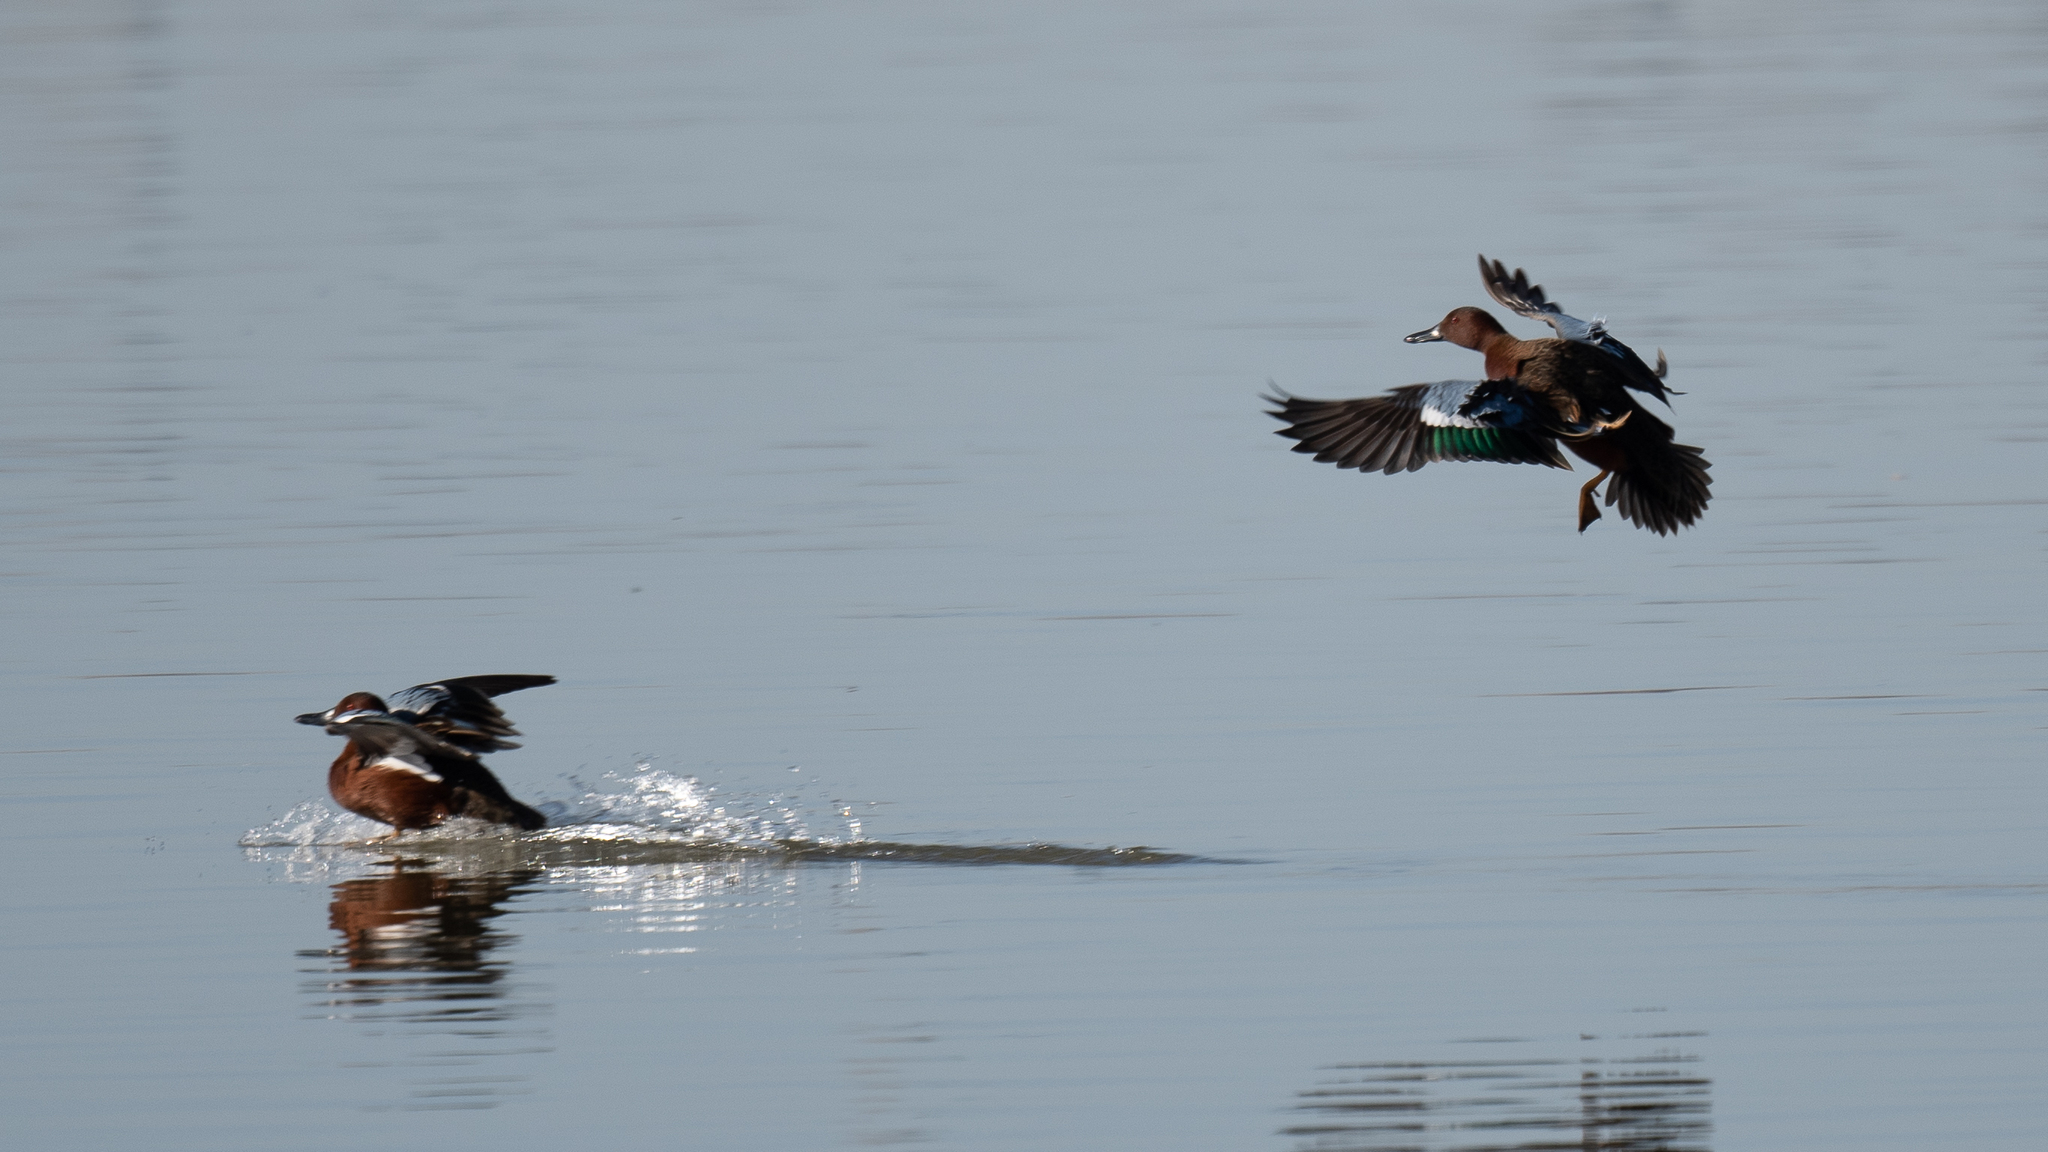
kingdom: Animalia
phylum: Chordata
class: Aves
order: Anseriformes
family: Anatidae
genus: Spatula
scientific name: Spatula cyanoptera
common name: Cinnamon teal
